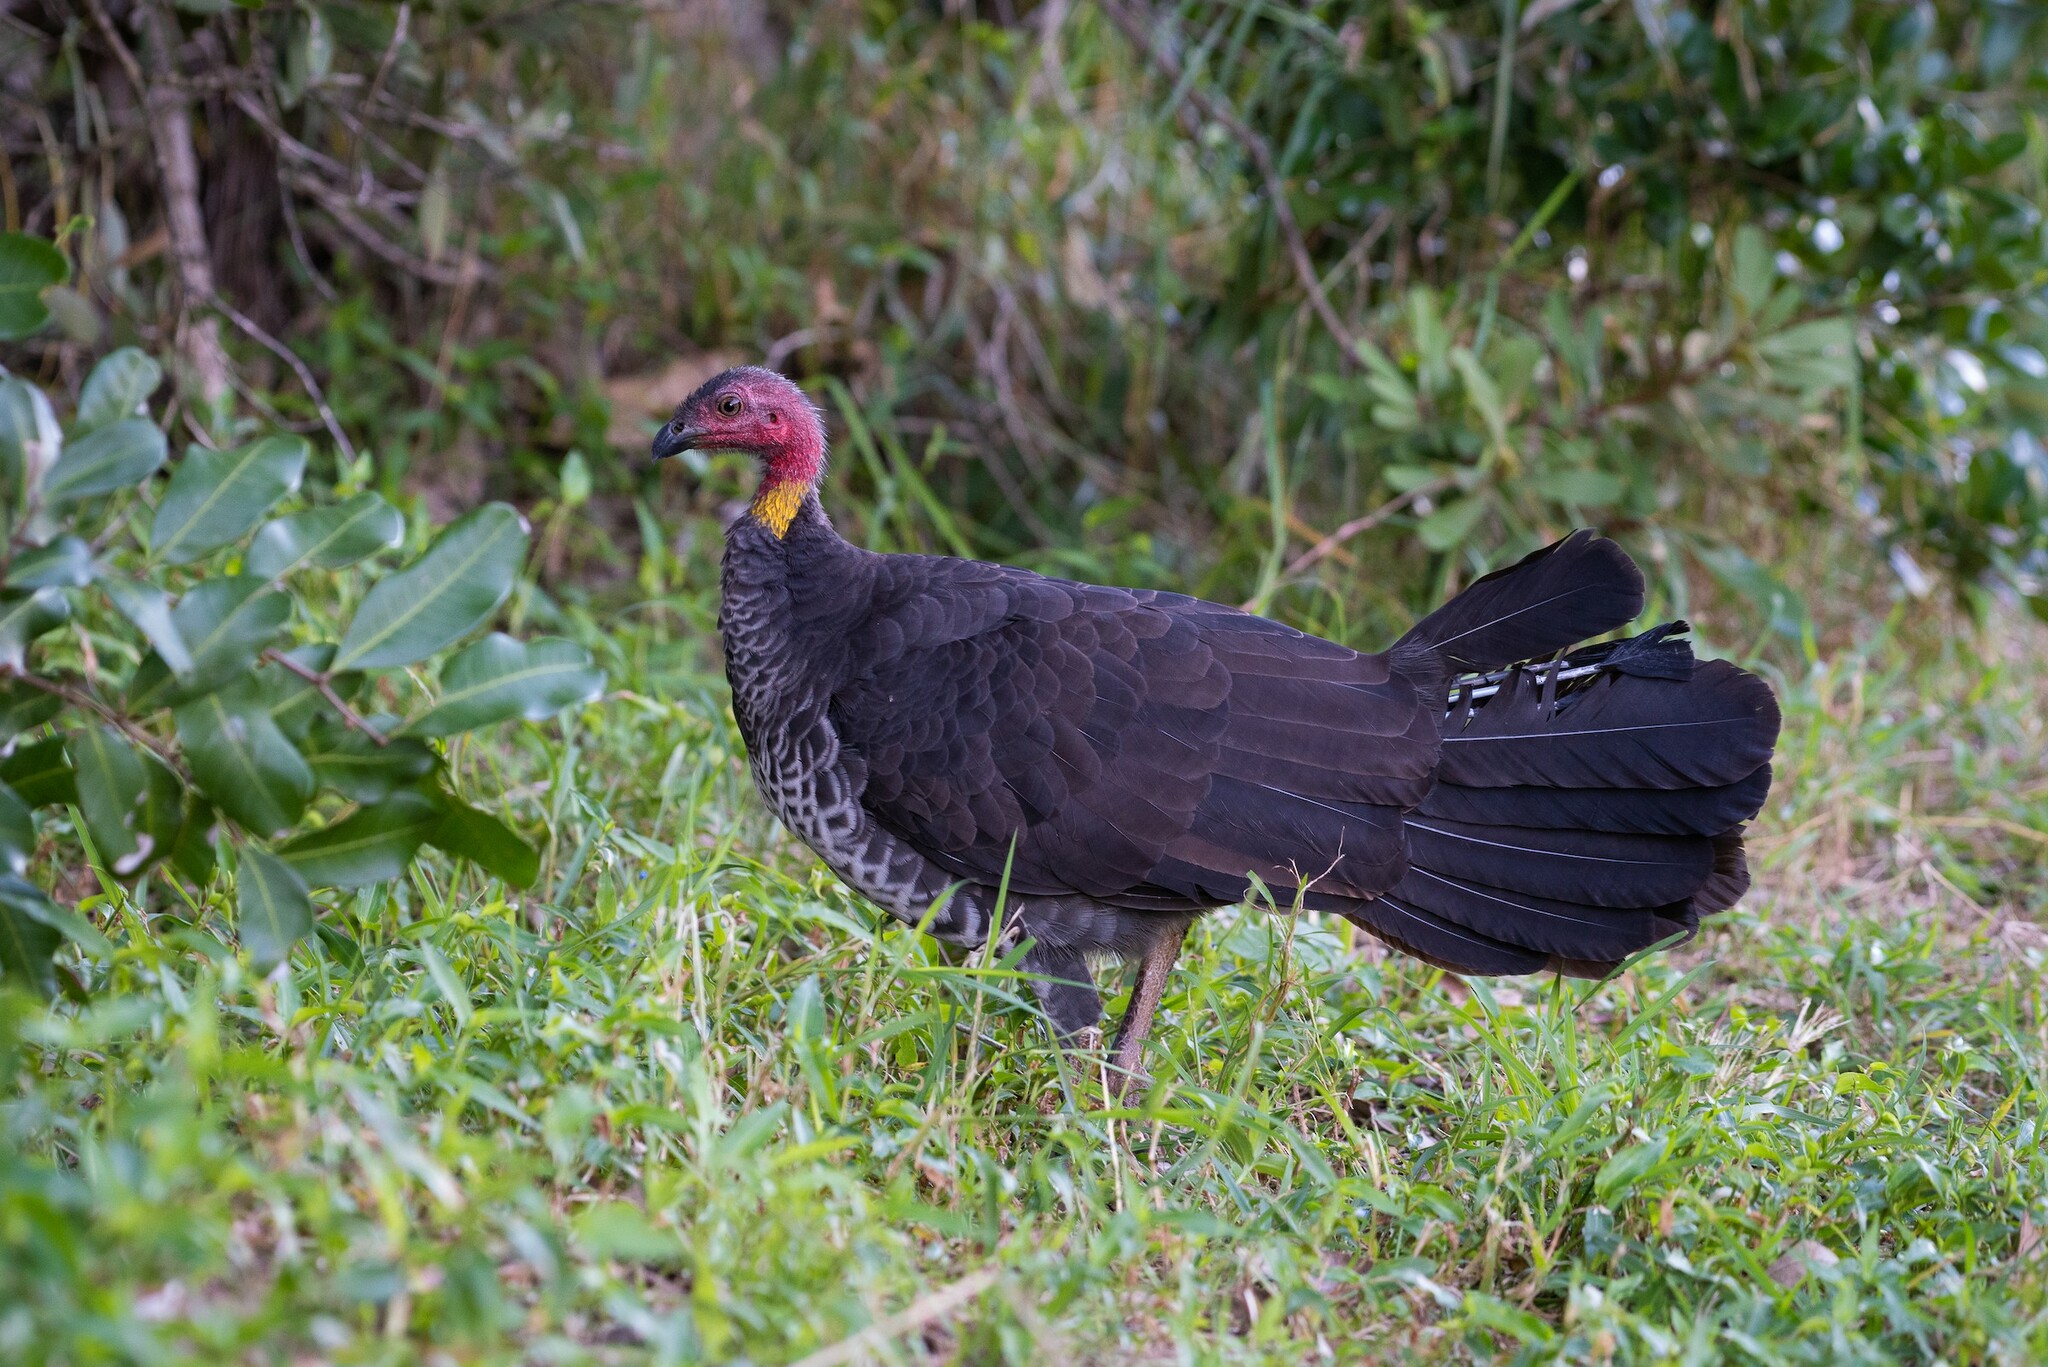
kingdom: Animalia
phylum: Chordata
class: Aves
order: Galliformes
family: Megapodiidae
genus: Alectura
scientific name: Alectura lathami
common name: Australian brushturkey
